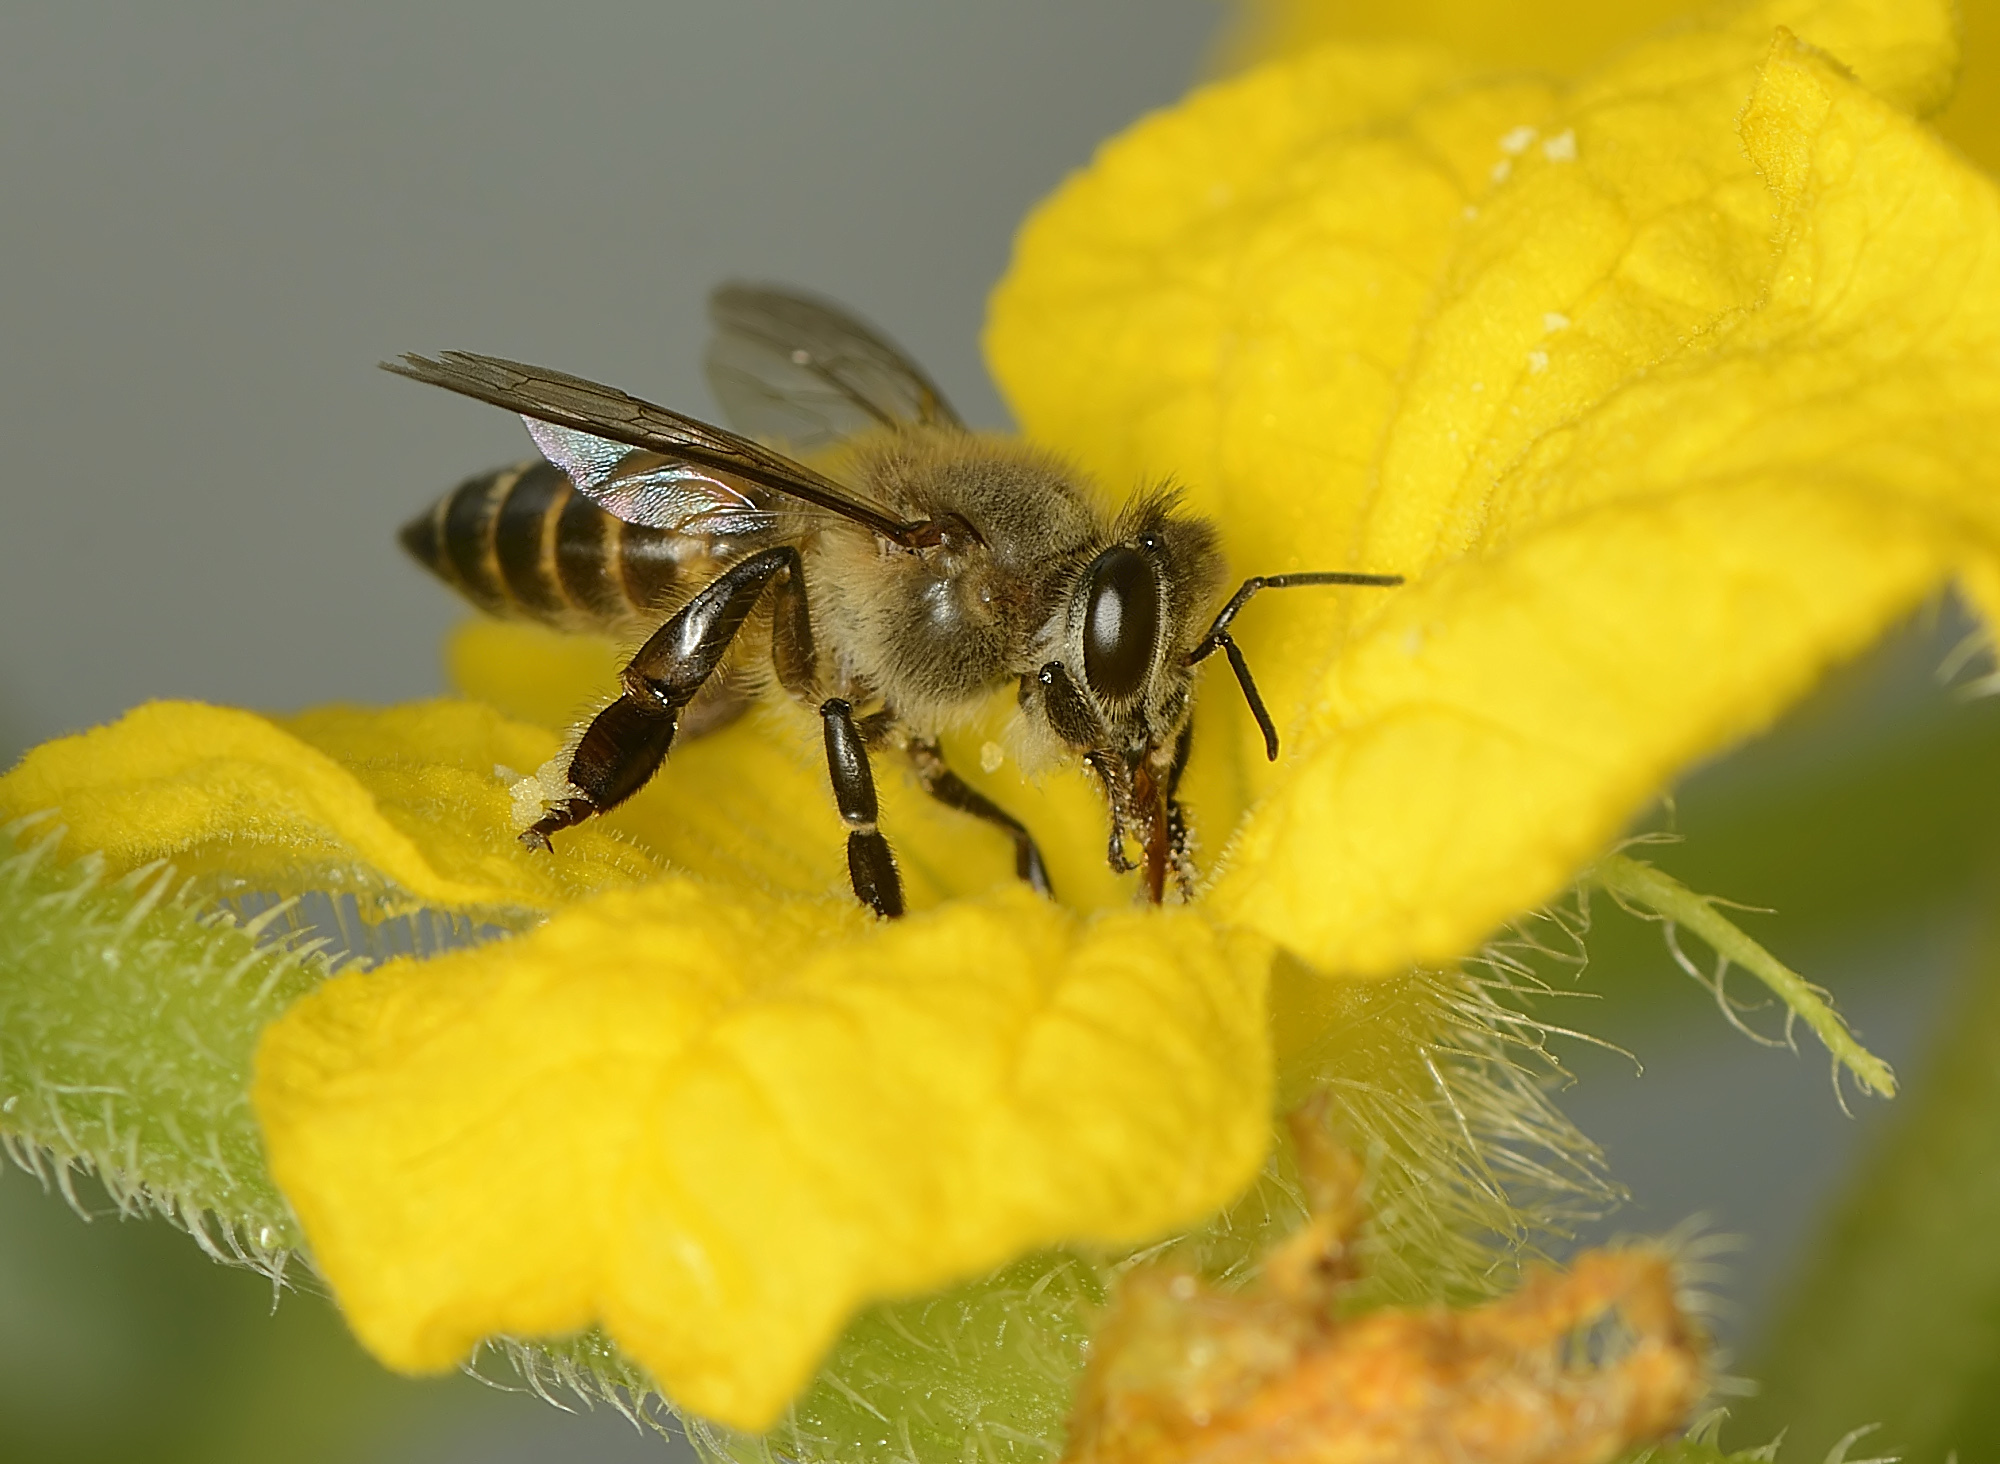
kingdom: Animalia
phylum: Arthropoda
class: Insecta
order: Hymenoptera
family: Apidae
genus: Apis
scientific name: Apis cerana
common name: Honey bee
